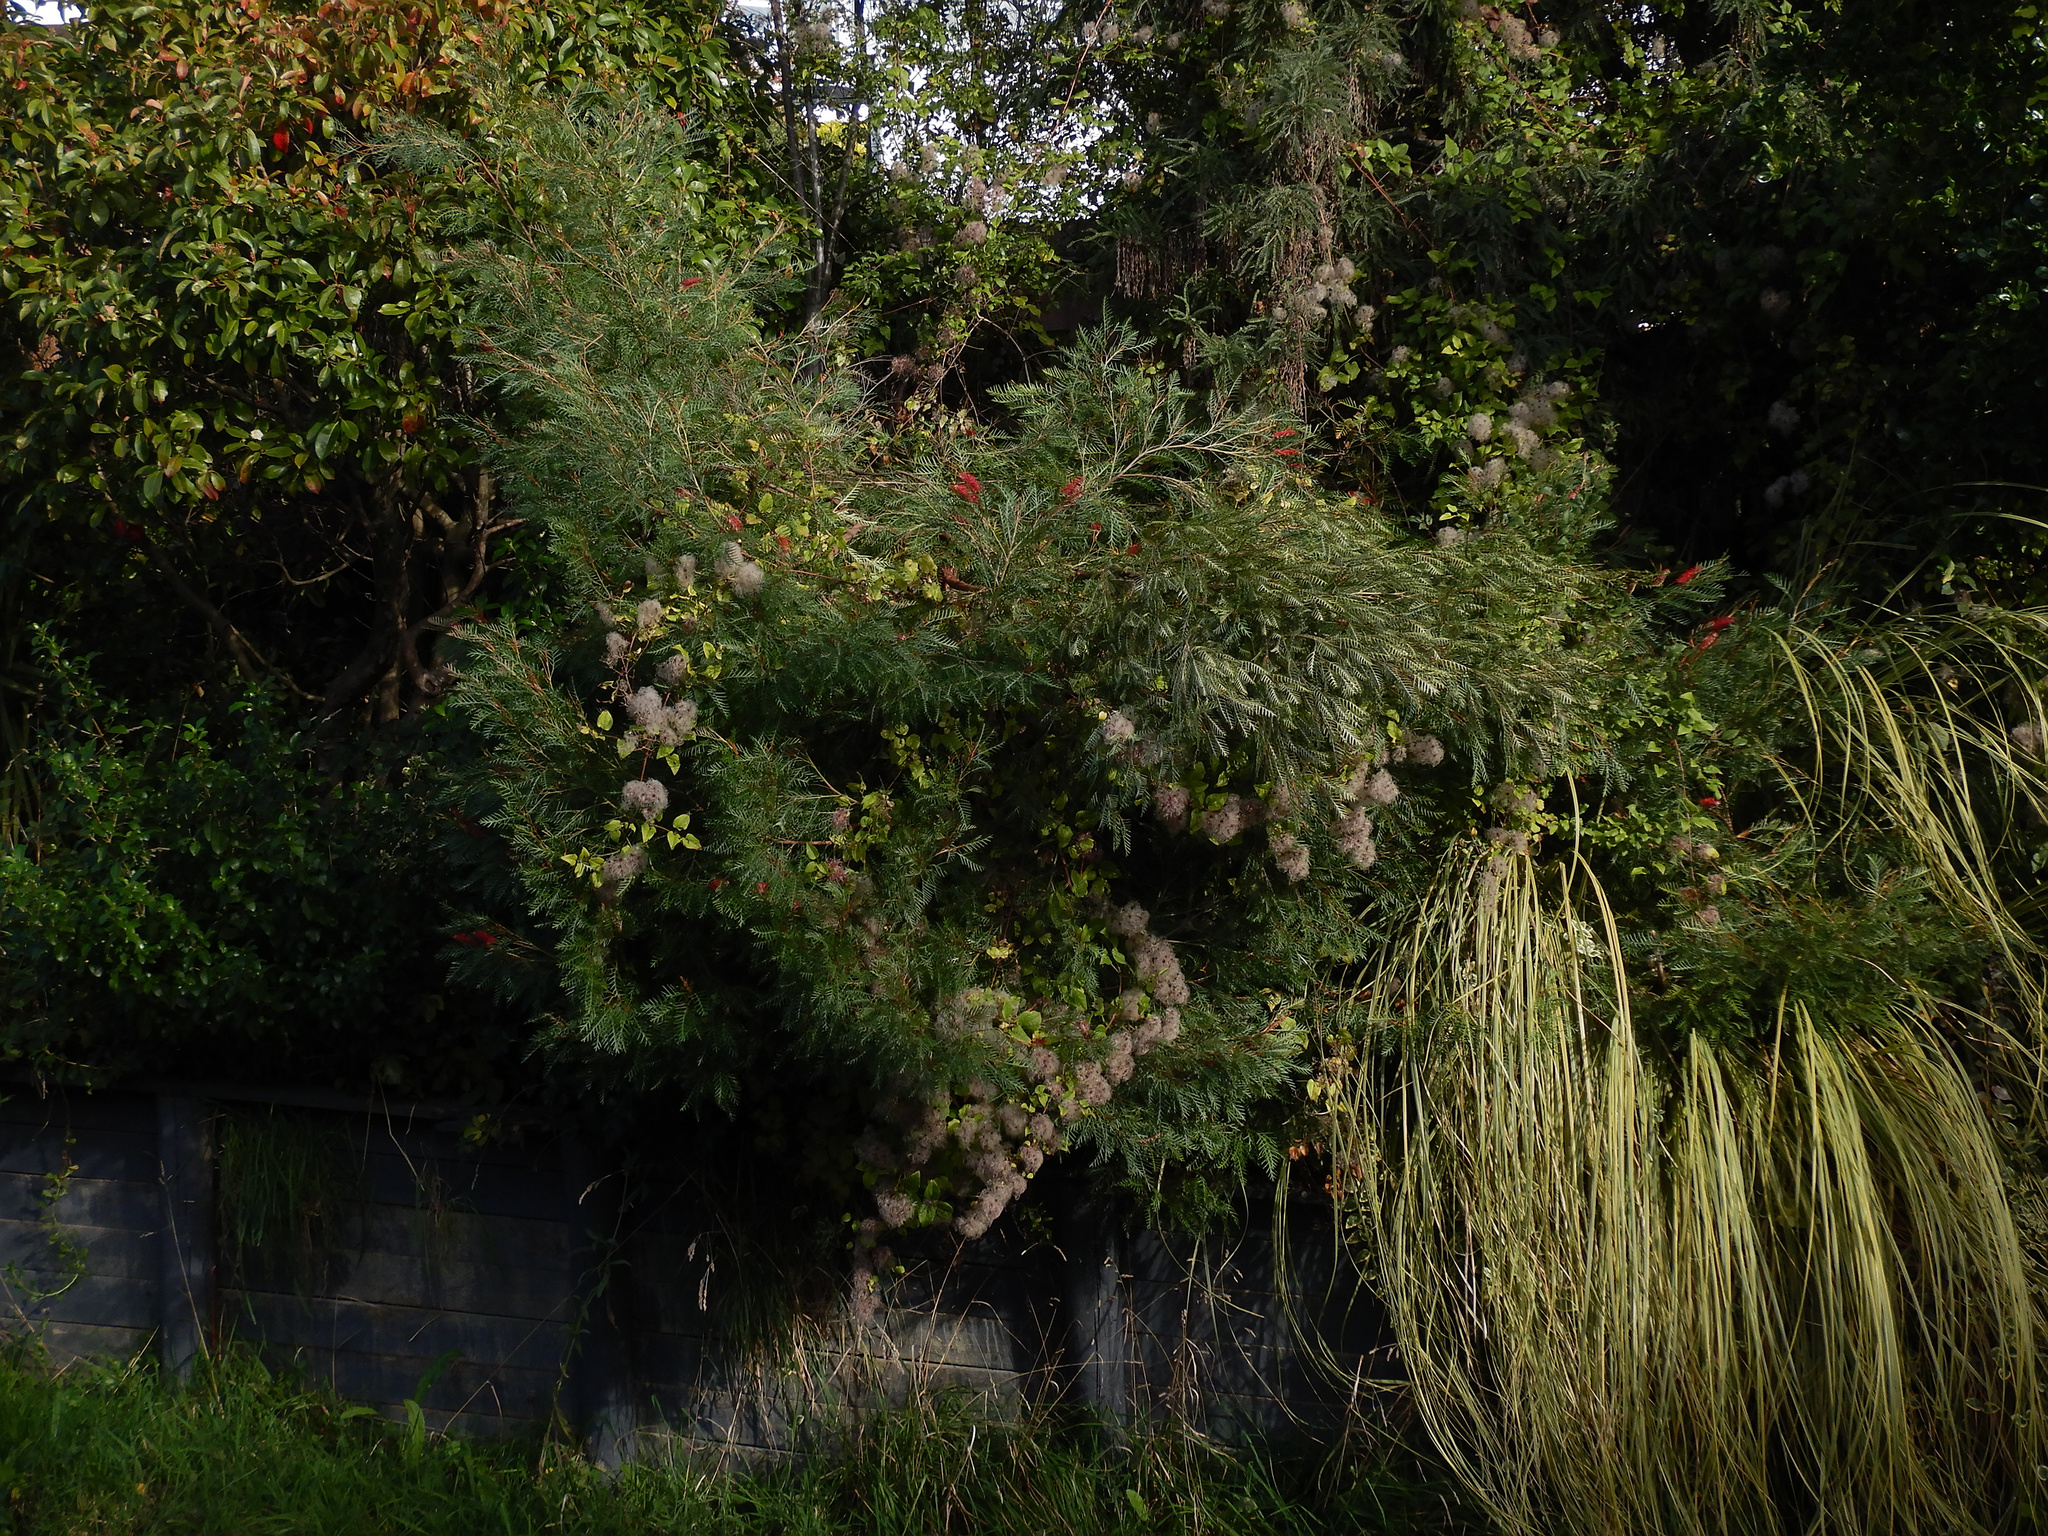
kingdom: Plantae
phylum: Tracheophyta
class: Magnoliopsida
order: Ranunculales
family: Ranunculaceae
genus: Clematis
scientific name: Clematis vitalba
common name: Evergreen clematis
